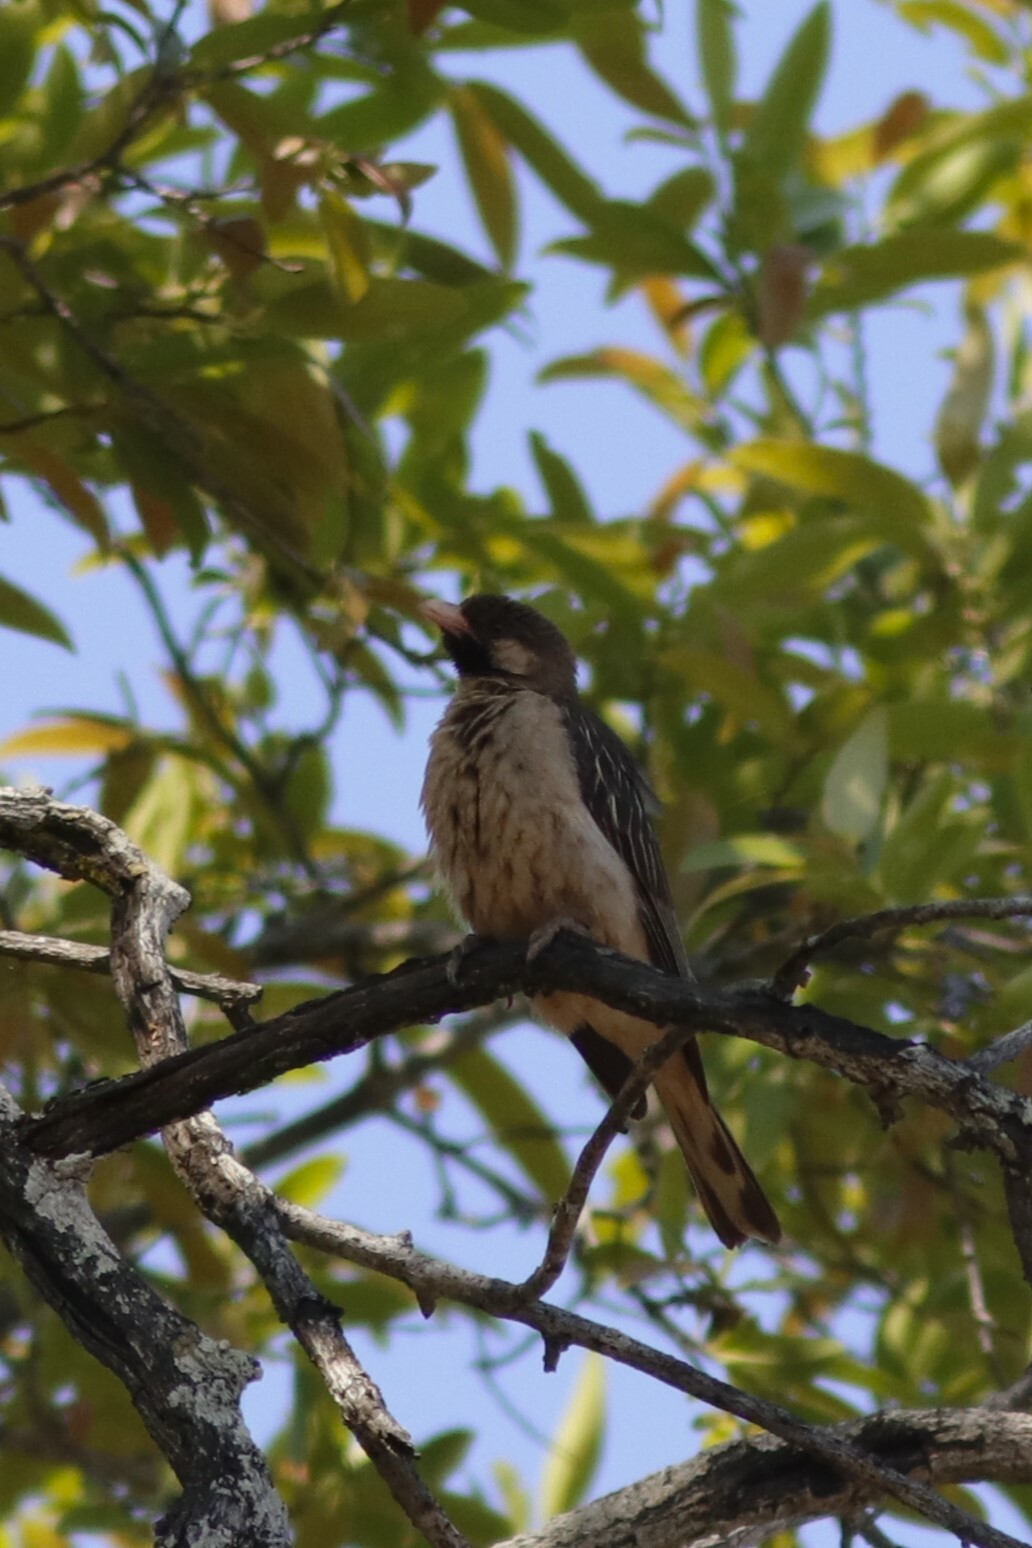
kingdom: Animalia
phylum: Chordata
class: Aves
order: Piciformes
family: Indicatoridae
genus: Indicator
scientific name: Indicator indicator
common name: Greater honeyguide
